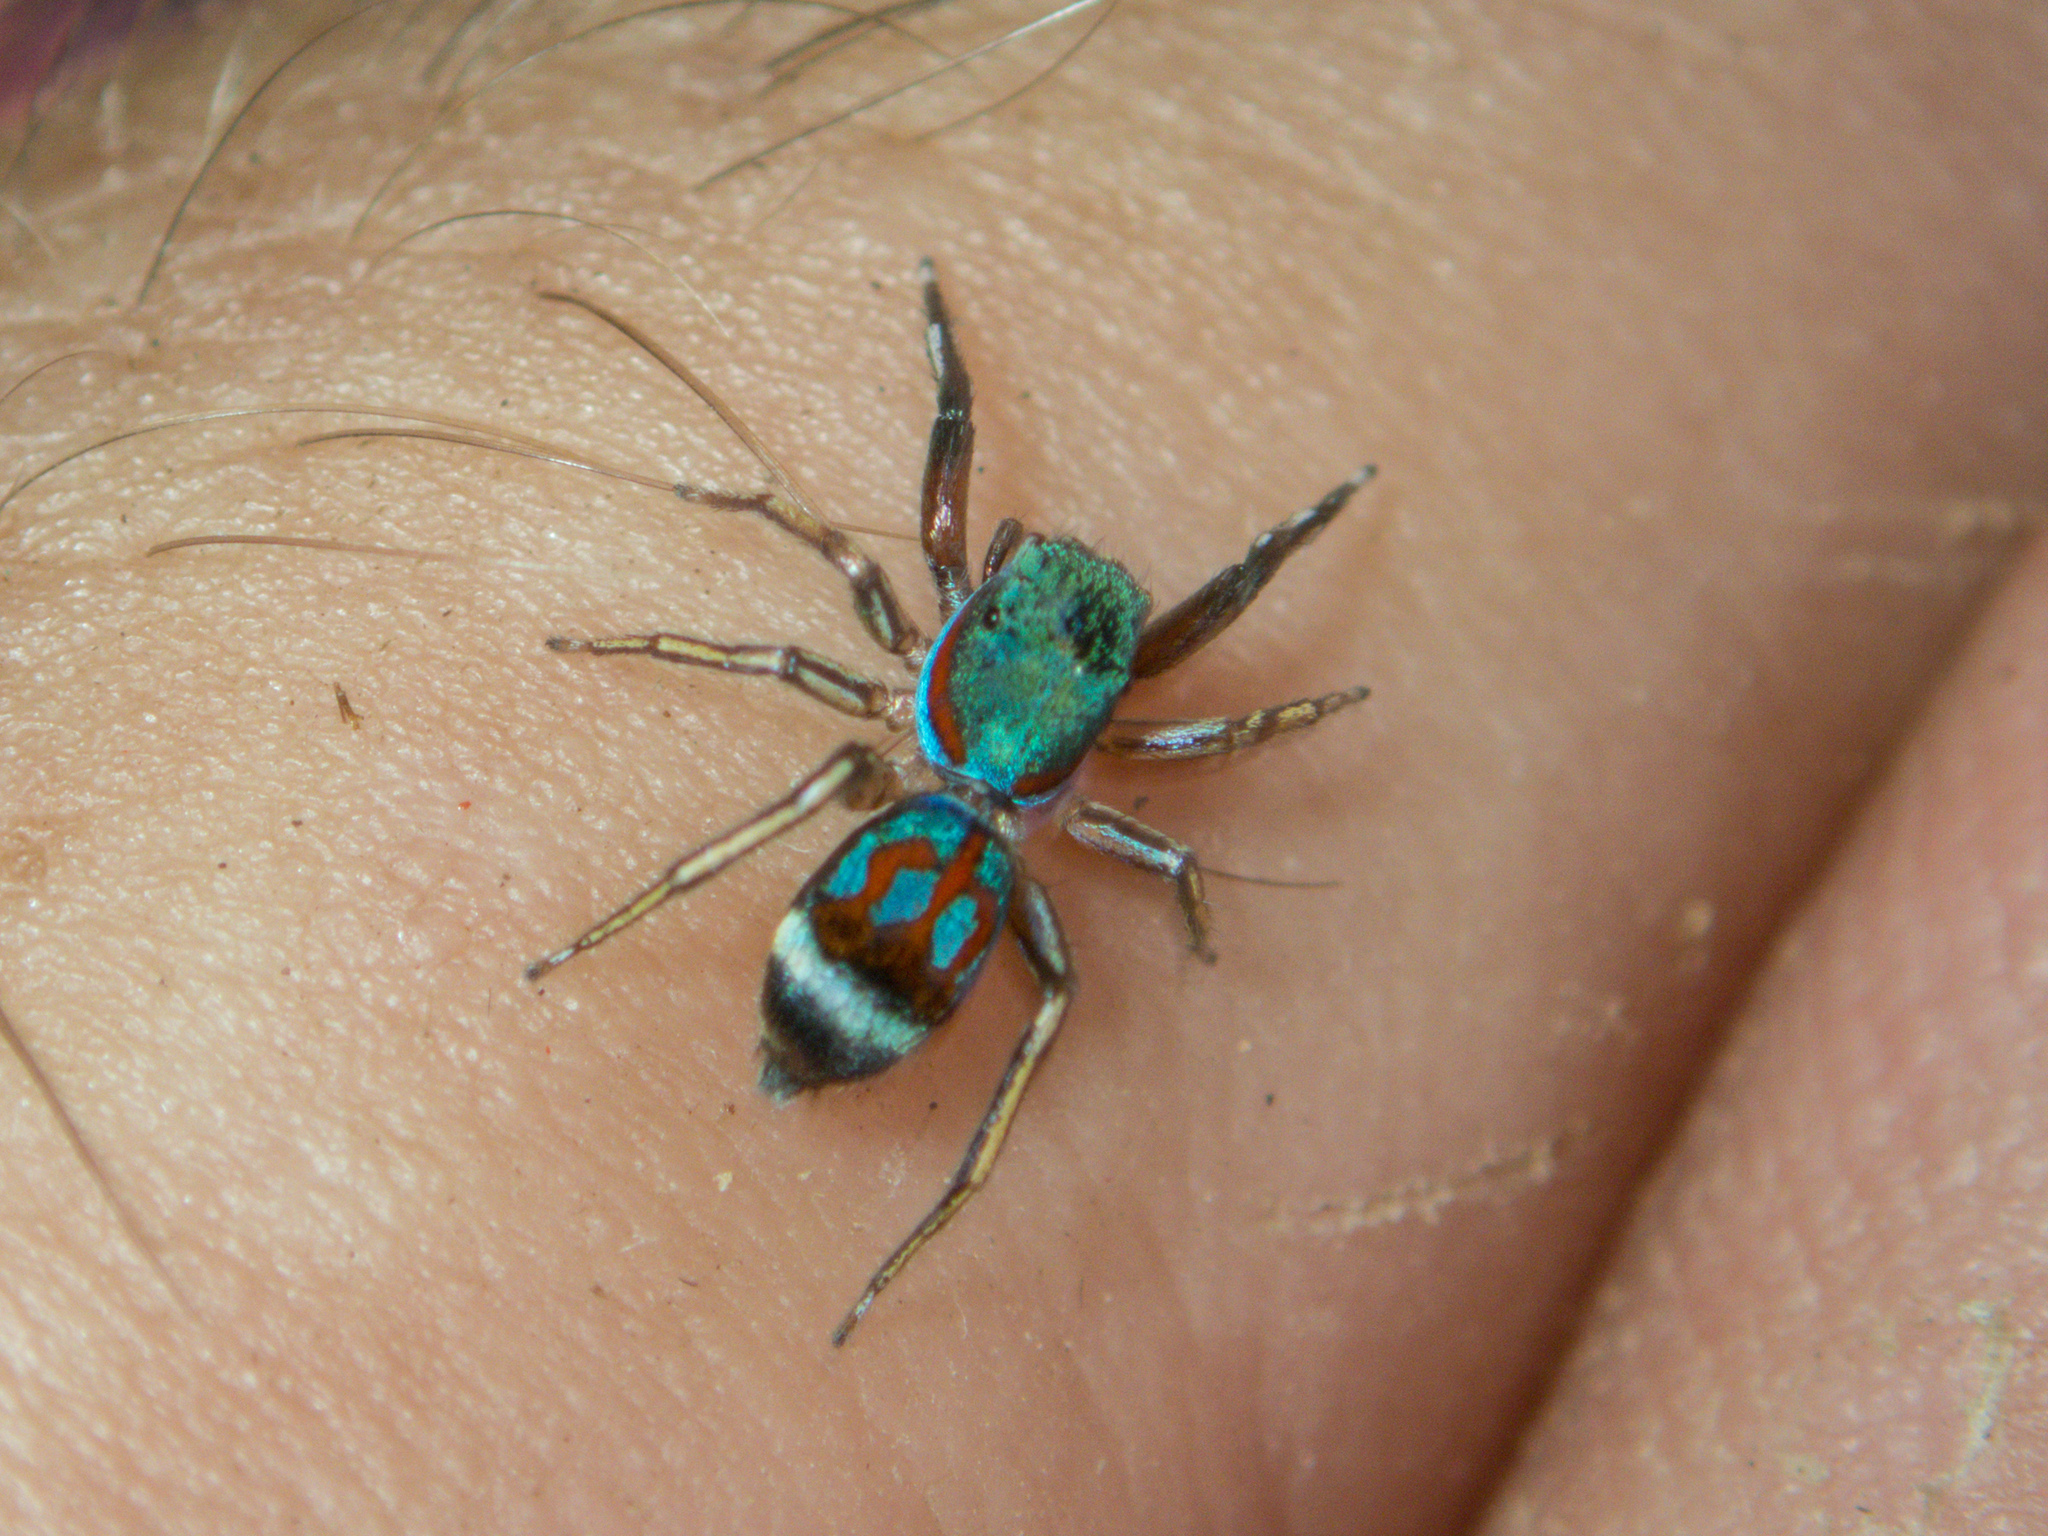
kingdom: Animalia
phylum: Arthropoda
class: Arachnida
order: Araneae
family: Salticidae
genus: Siler
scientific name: Siler semiglaucus
